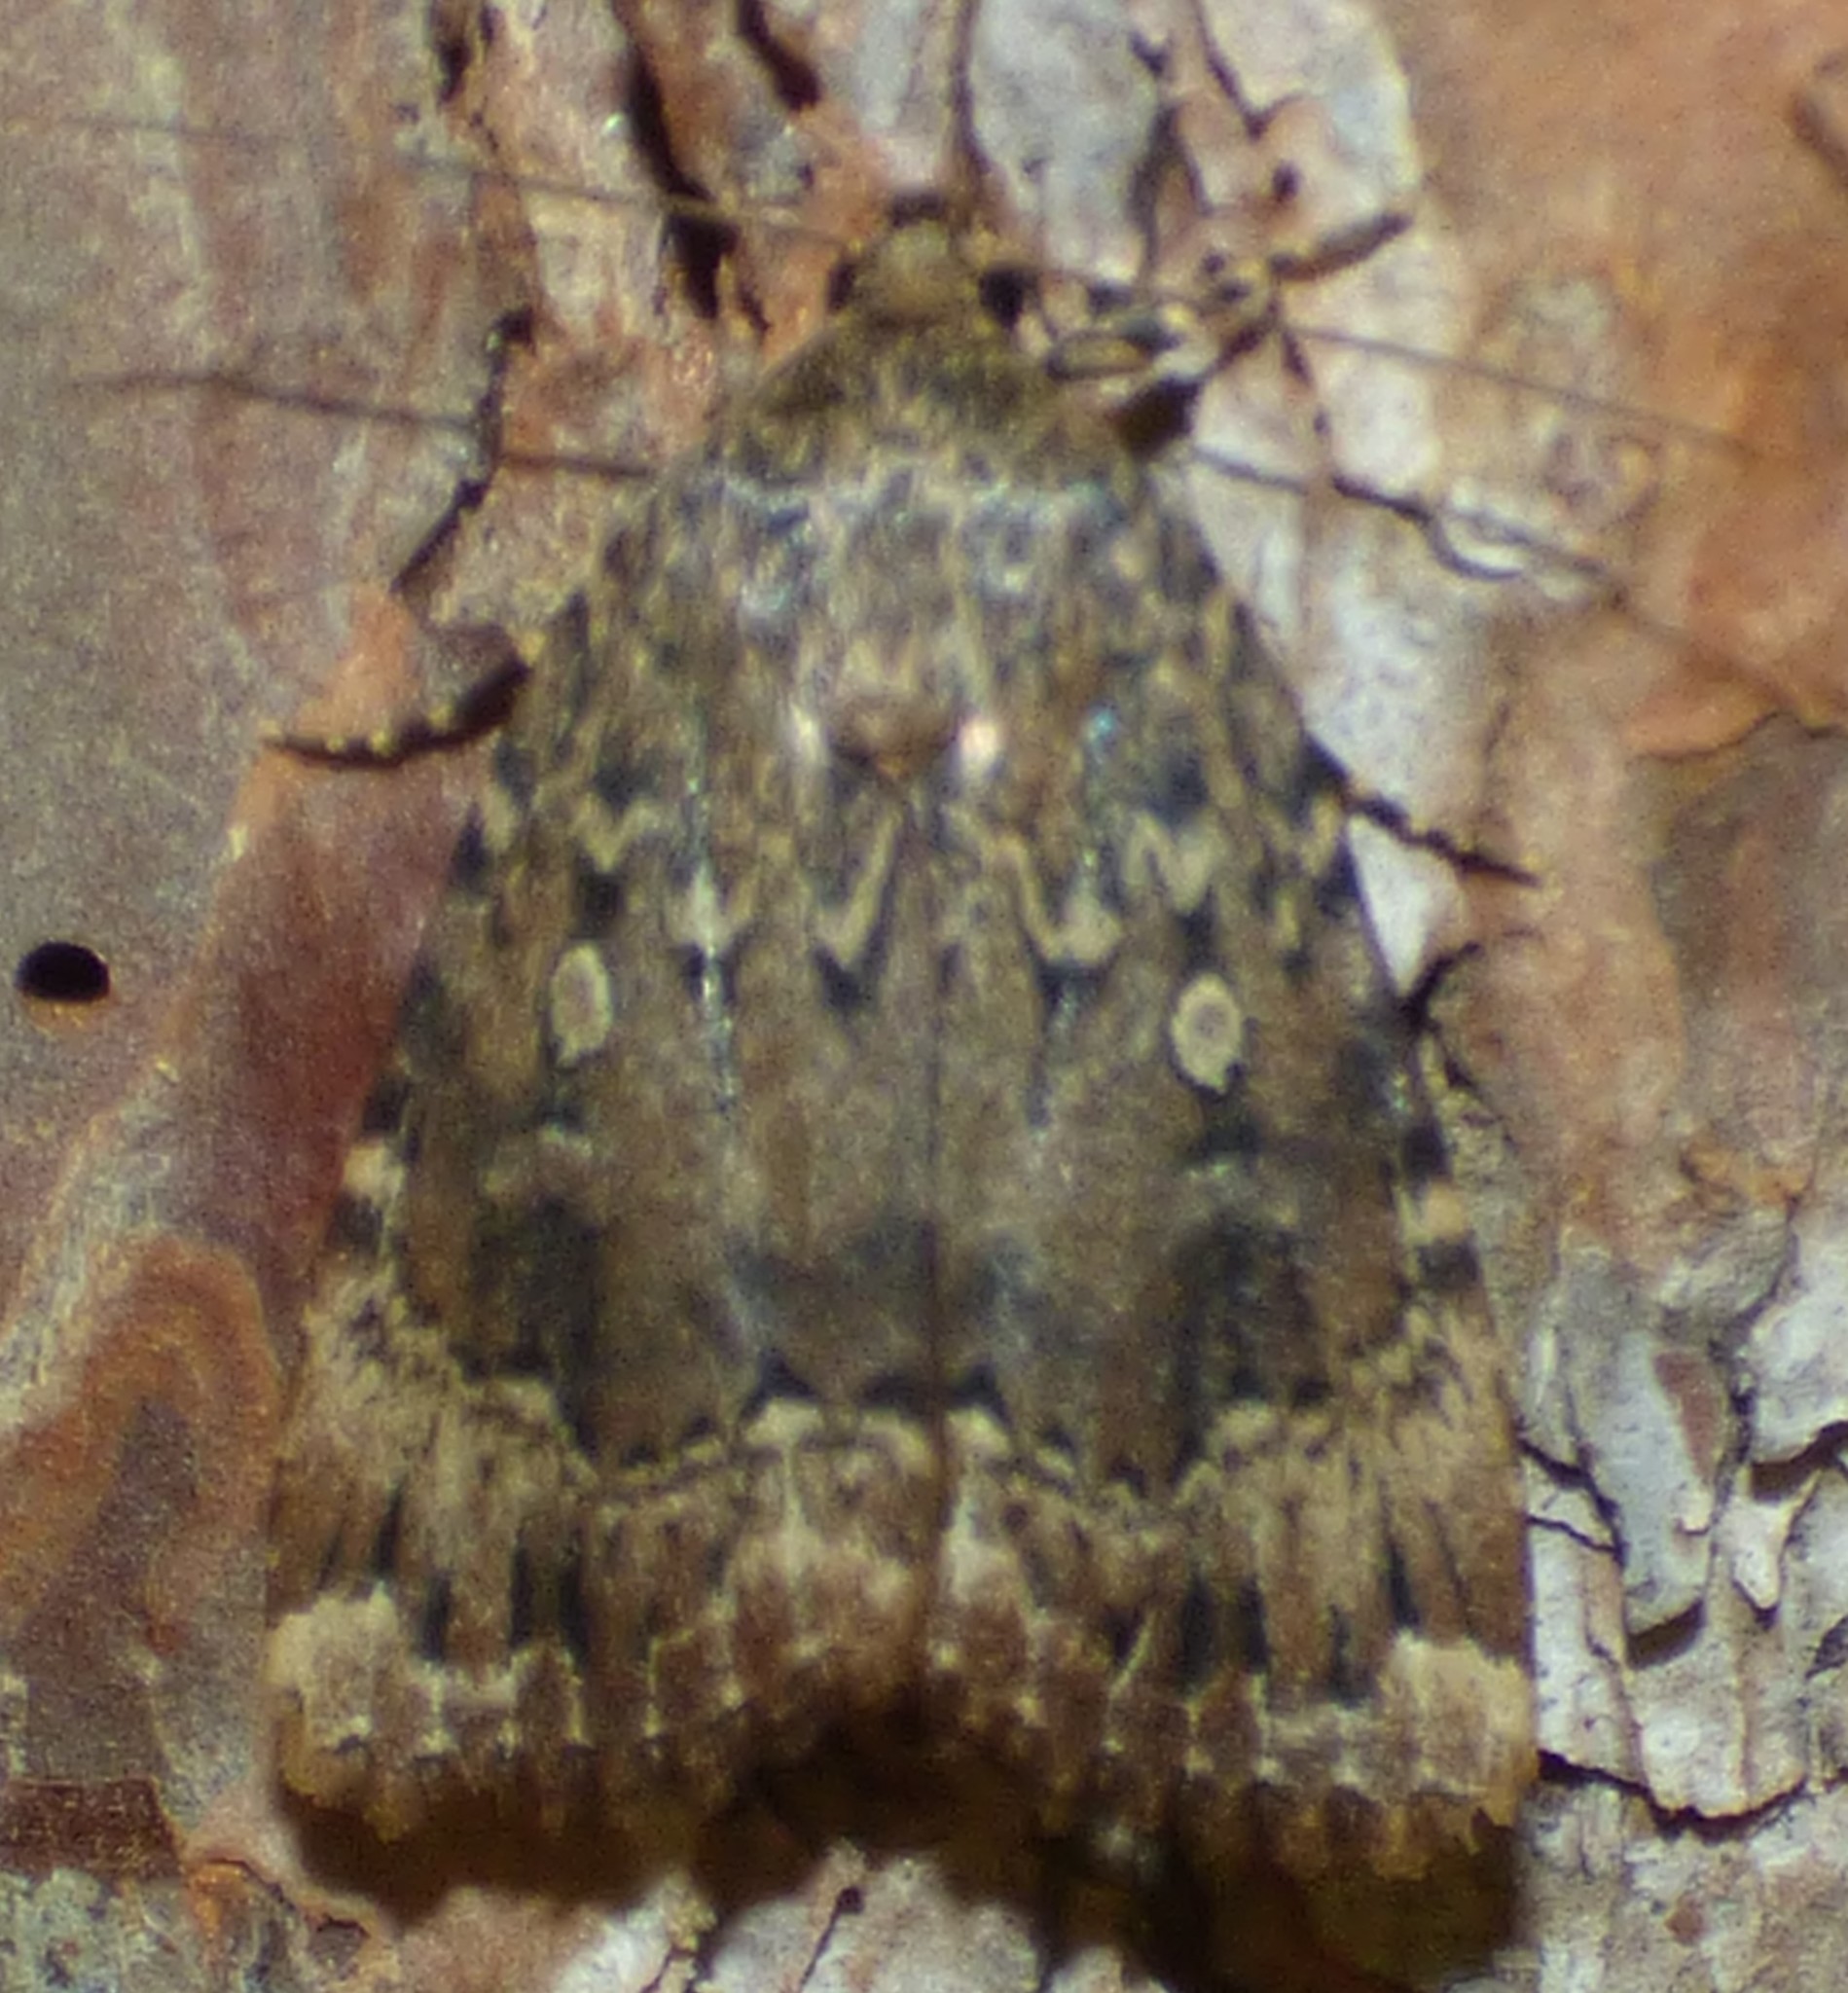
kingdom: Animalia
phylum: Arthropoda
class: Insecta
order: Lepidoptera
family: Noctuidae
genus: Amphipyra
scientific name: Amphipyra pyramidoides
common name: American copper underwing
